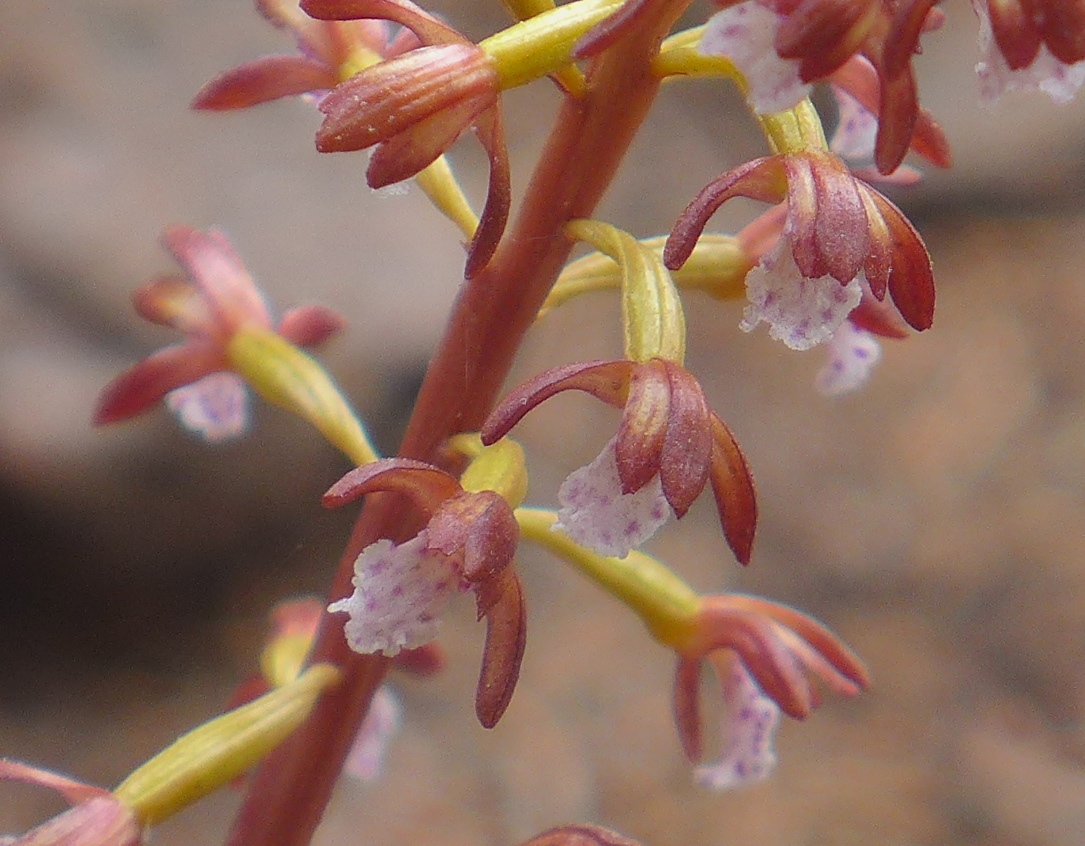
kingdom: Plantae
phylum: Tracheophyta
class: Liliopsida
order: Asparagales
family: Orchidaceae
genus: Corallorhiza
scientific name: Corallorhiza maculata
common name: Spotted coralroot
